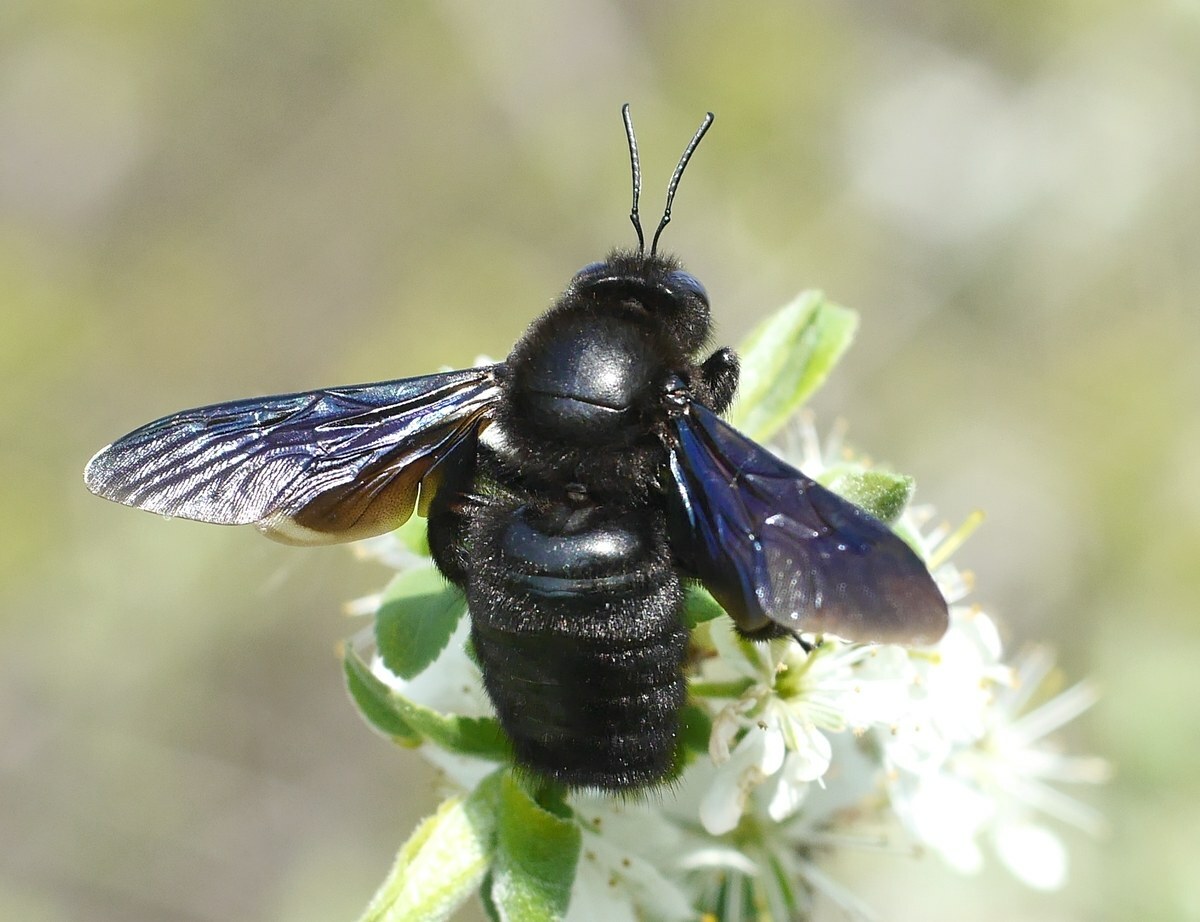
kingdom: Animalia
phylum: Arthropoda
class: Insecta
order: Hymenoptera
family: Apidae
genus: Xylocopa
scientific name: Xylocopa valga
